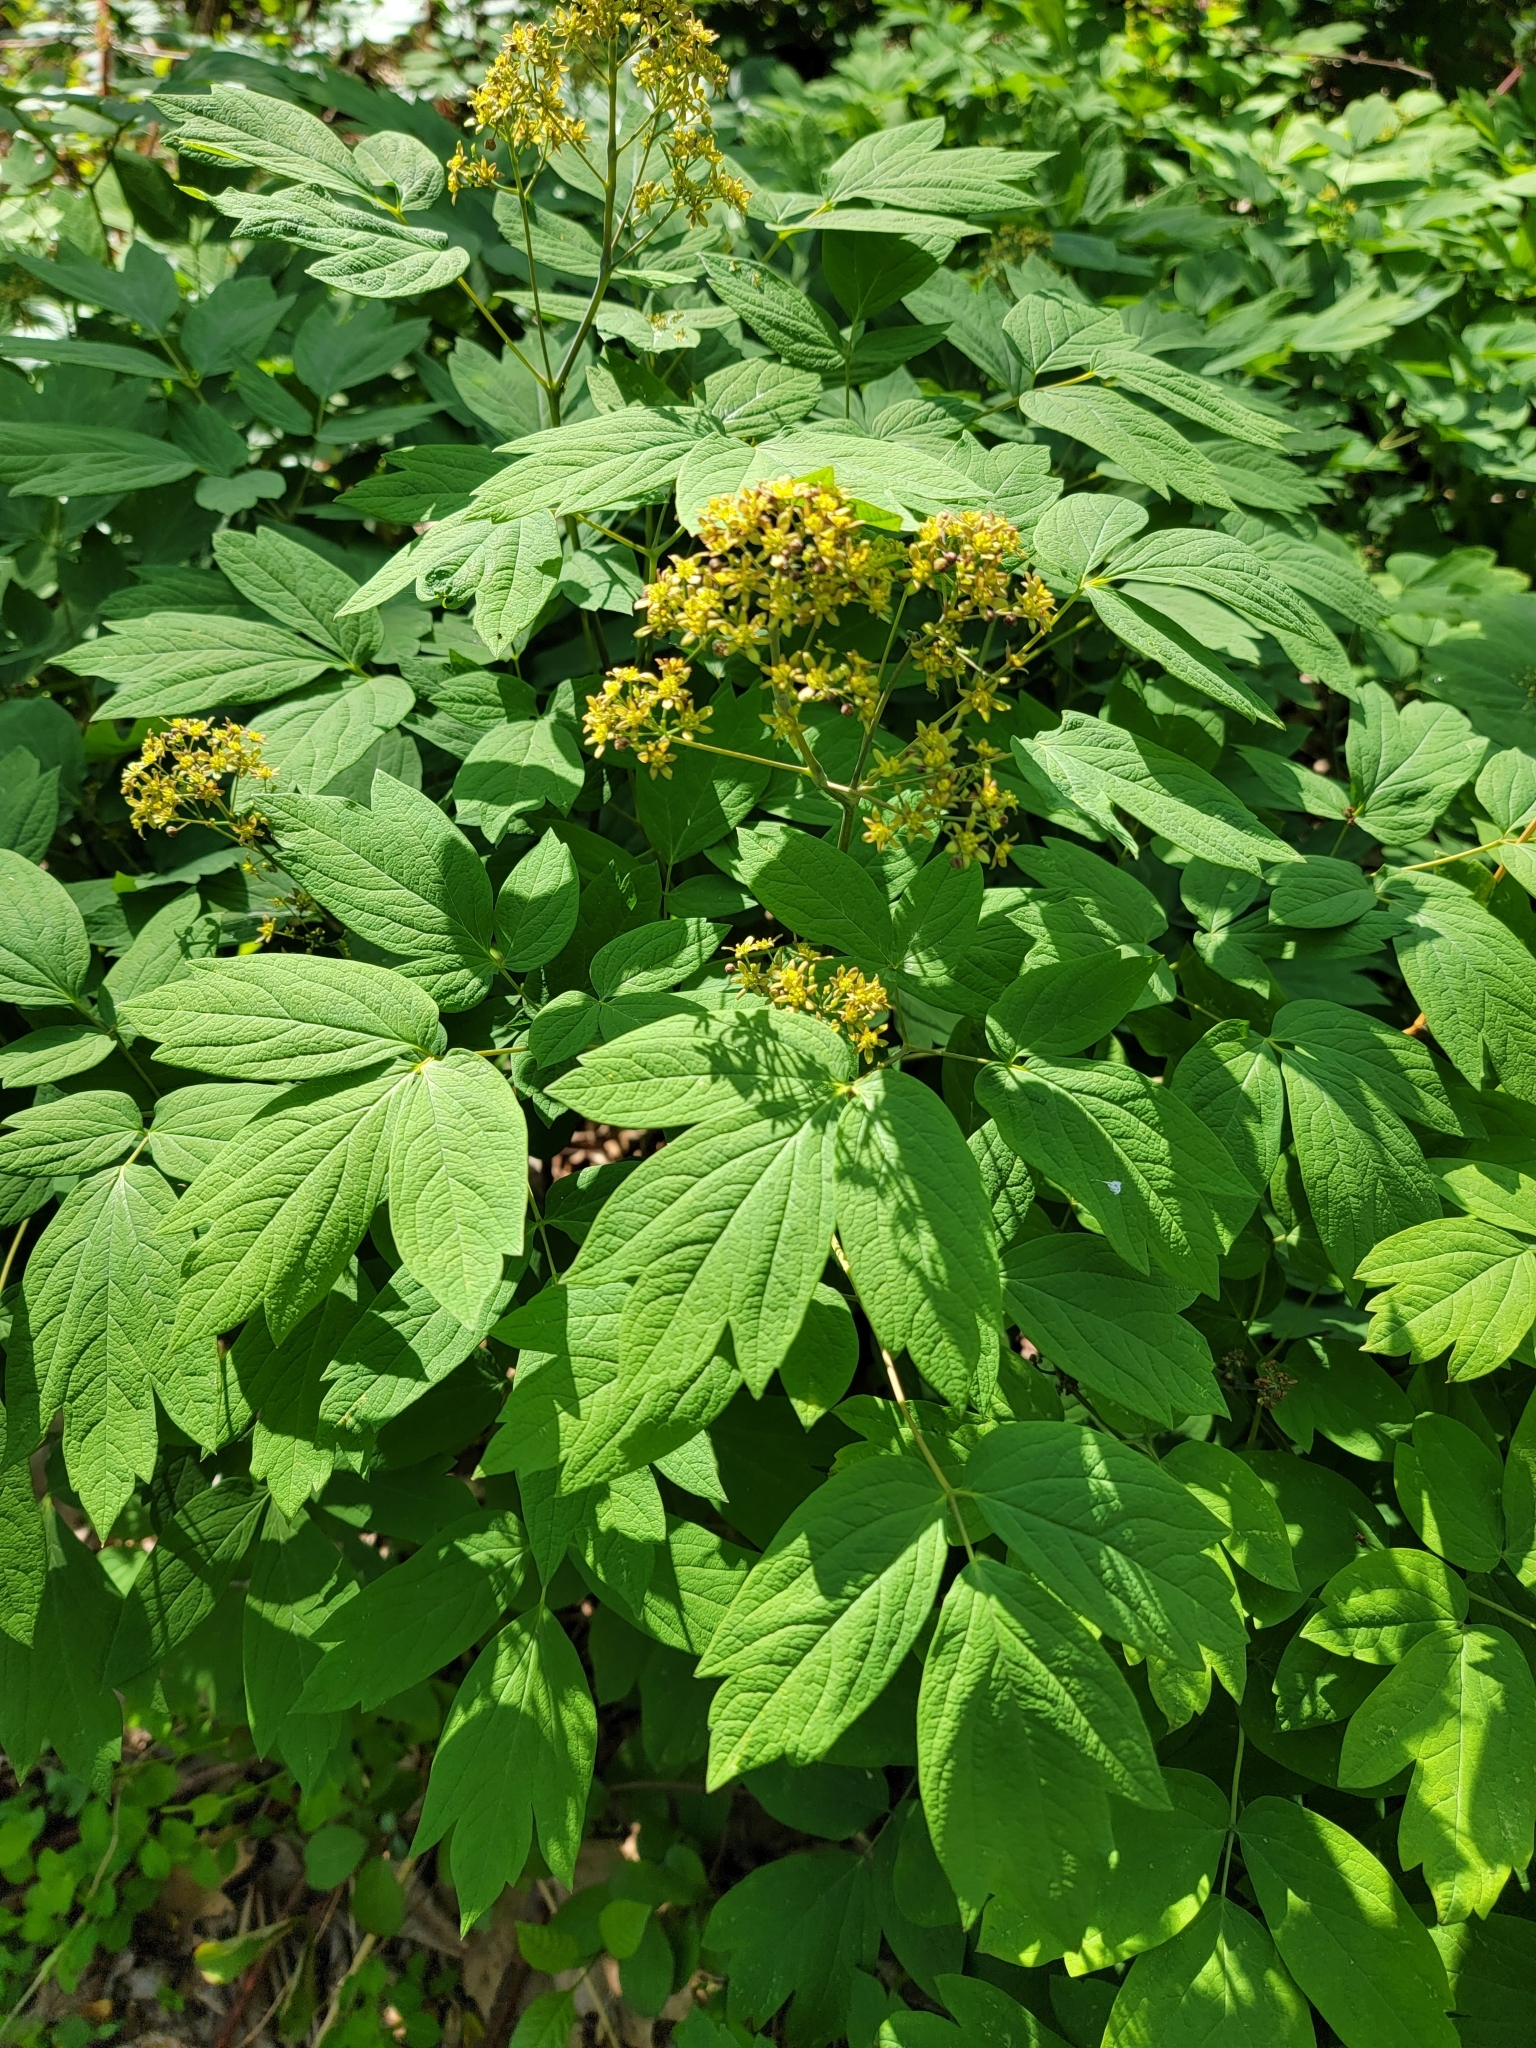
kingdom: Plantae
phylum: Tracheophyta
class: Magnoliopsida
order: Ranunculales
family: Berberidaceae
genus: Caulophyllum
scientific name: Caulophyllum thalictroides
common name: Blue cohosh
